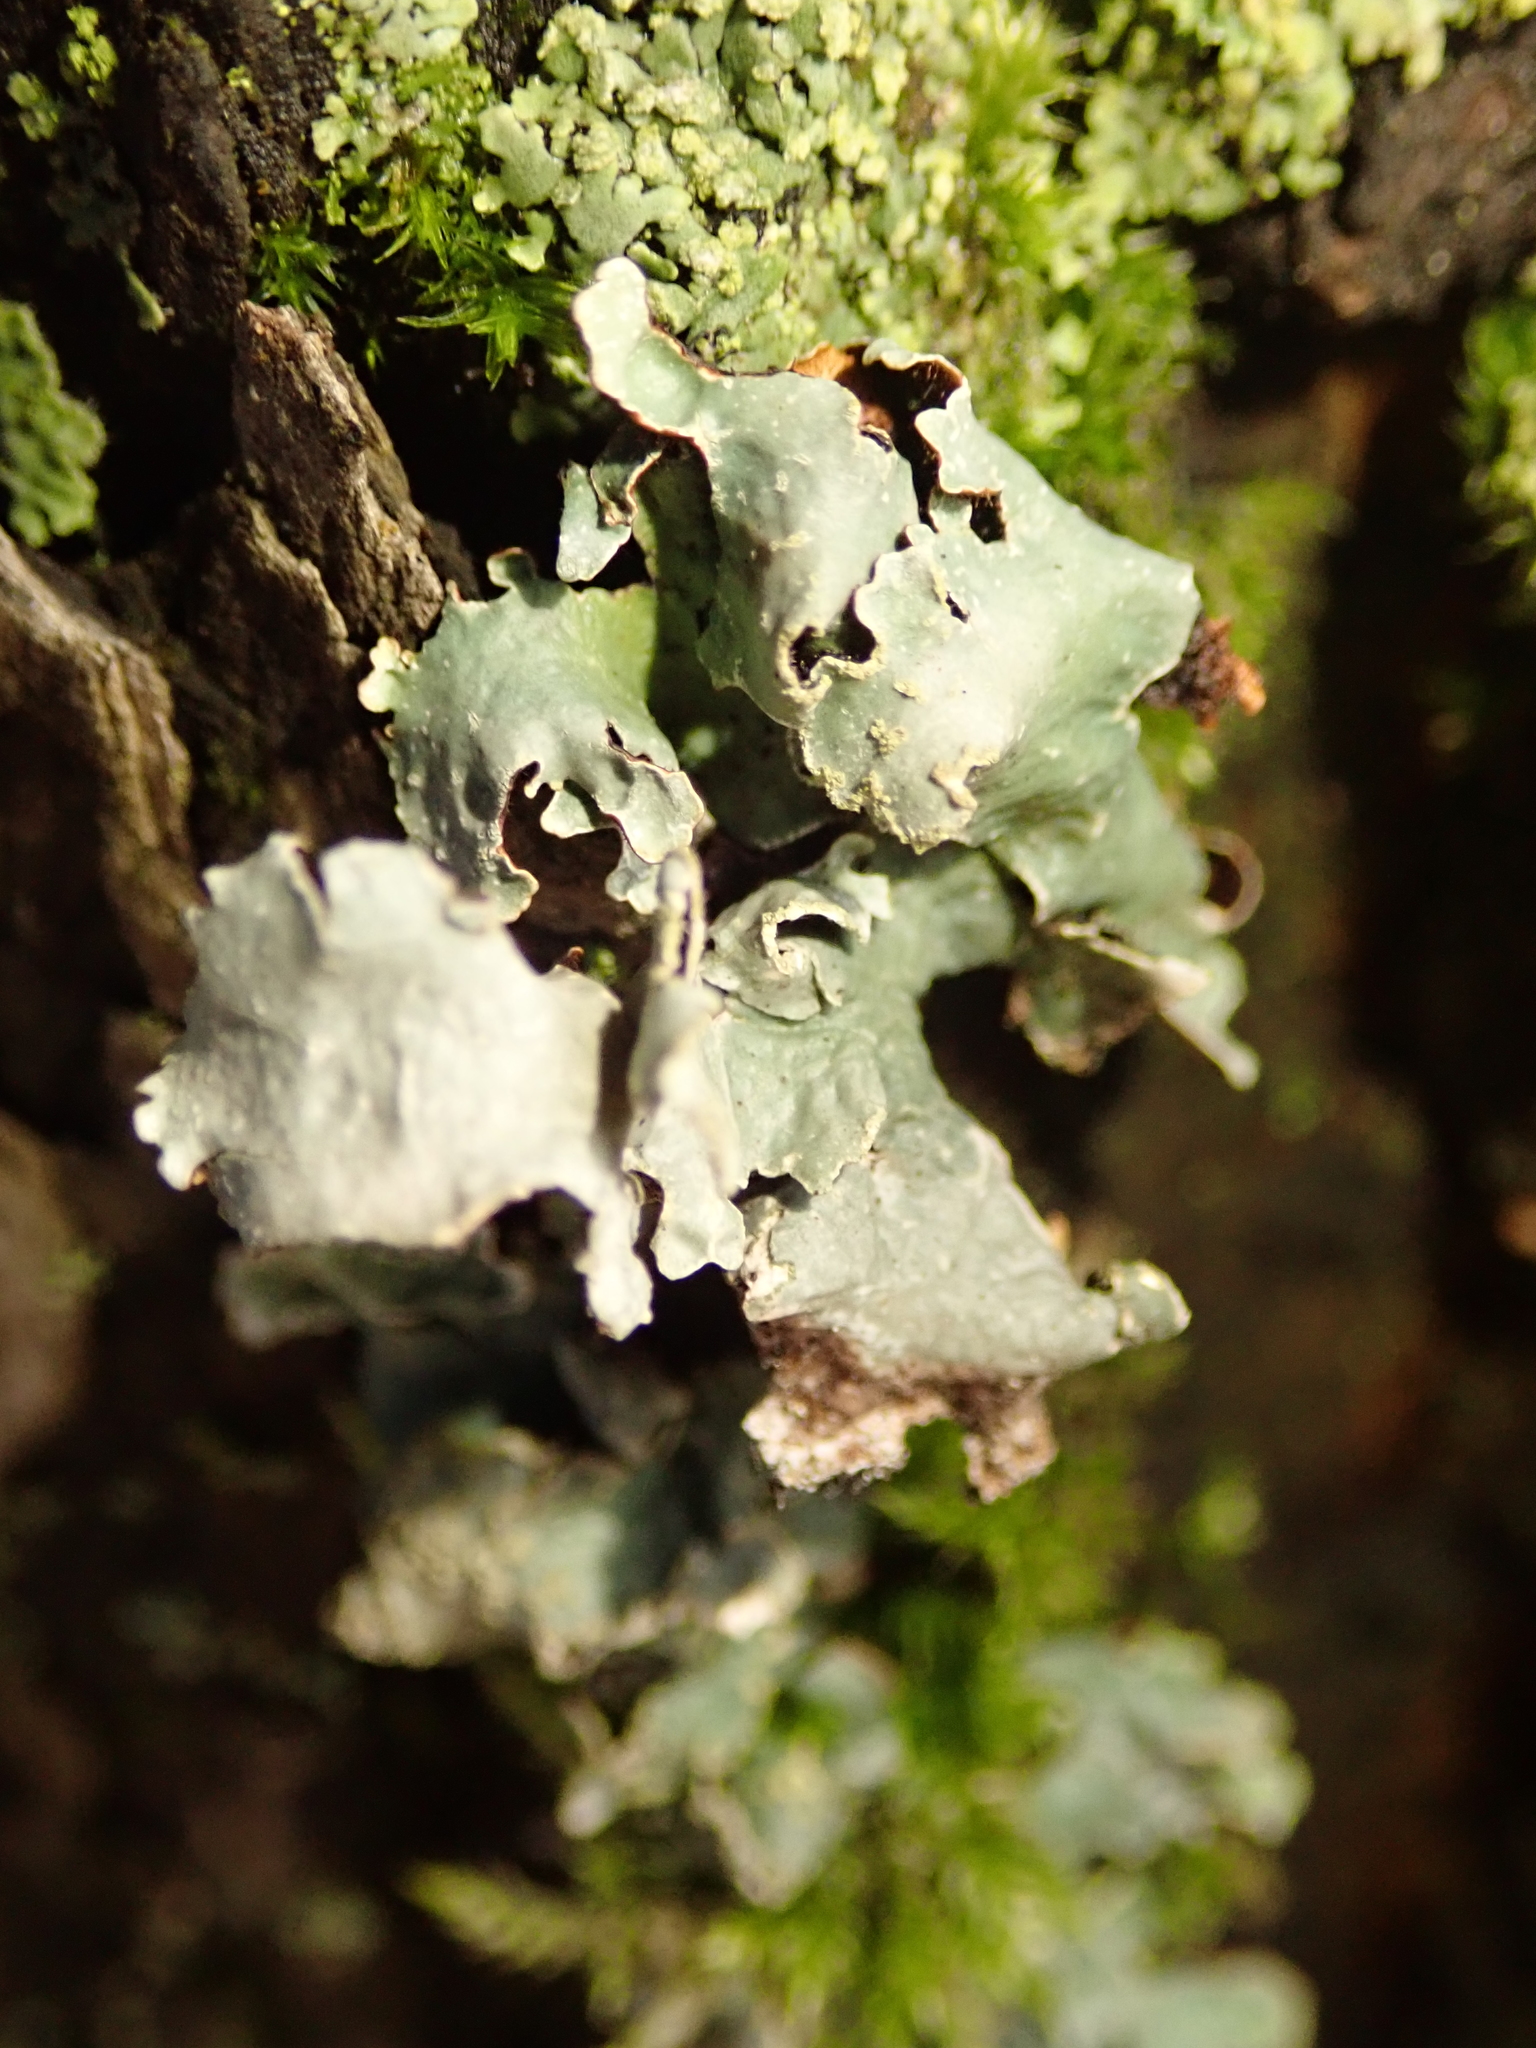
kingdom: Fungi
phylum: Ascomycota
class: Lecanoromycetes
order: Lecanorales
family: Parmeliaceae
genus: Parmelia
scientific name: Parmelia sulcata
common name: Netted shield lichen
